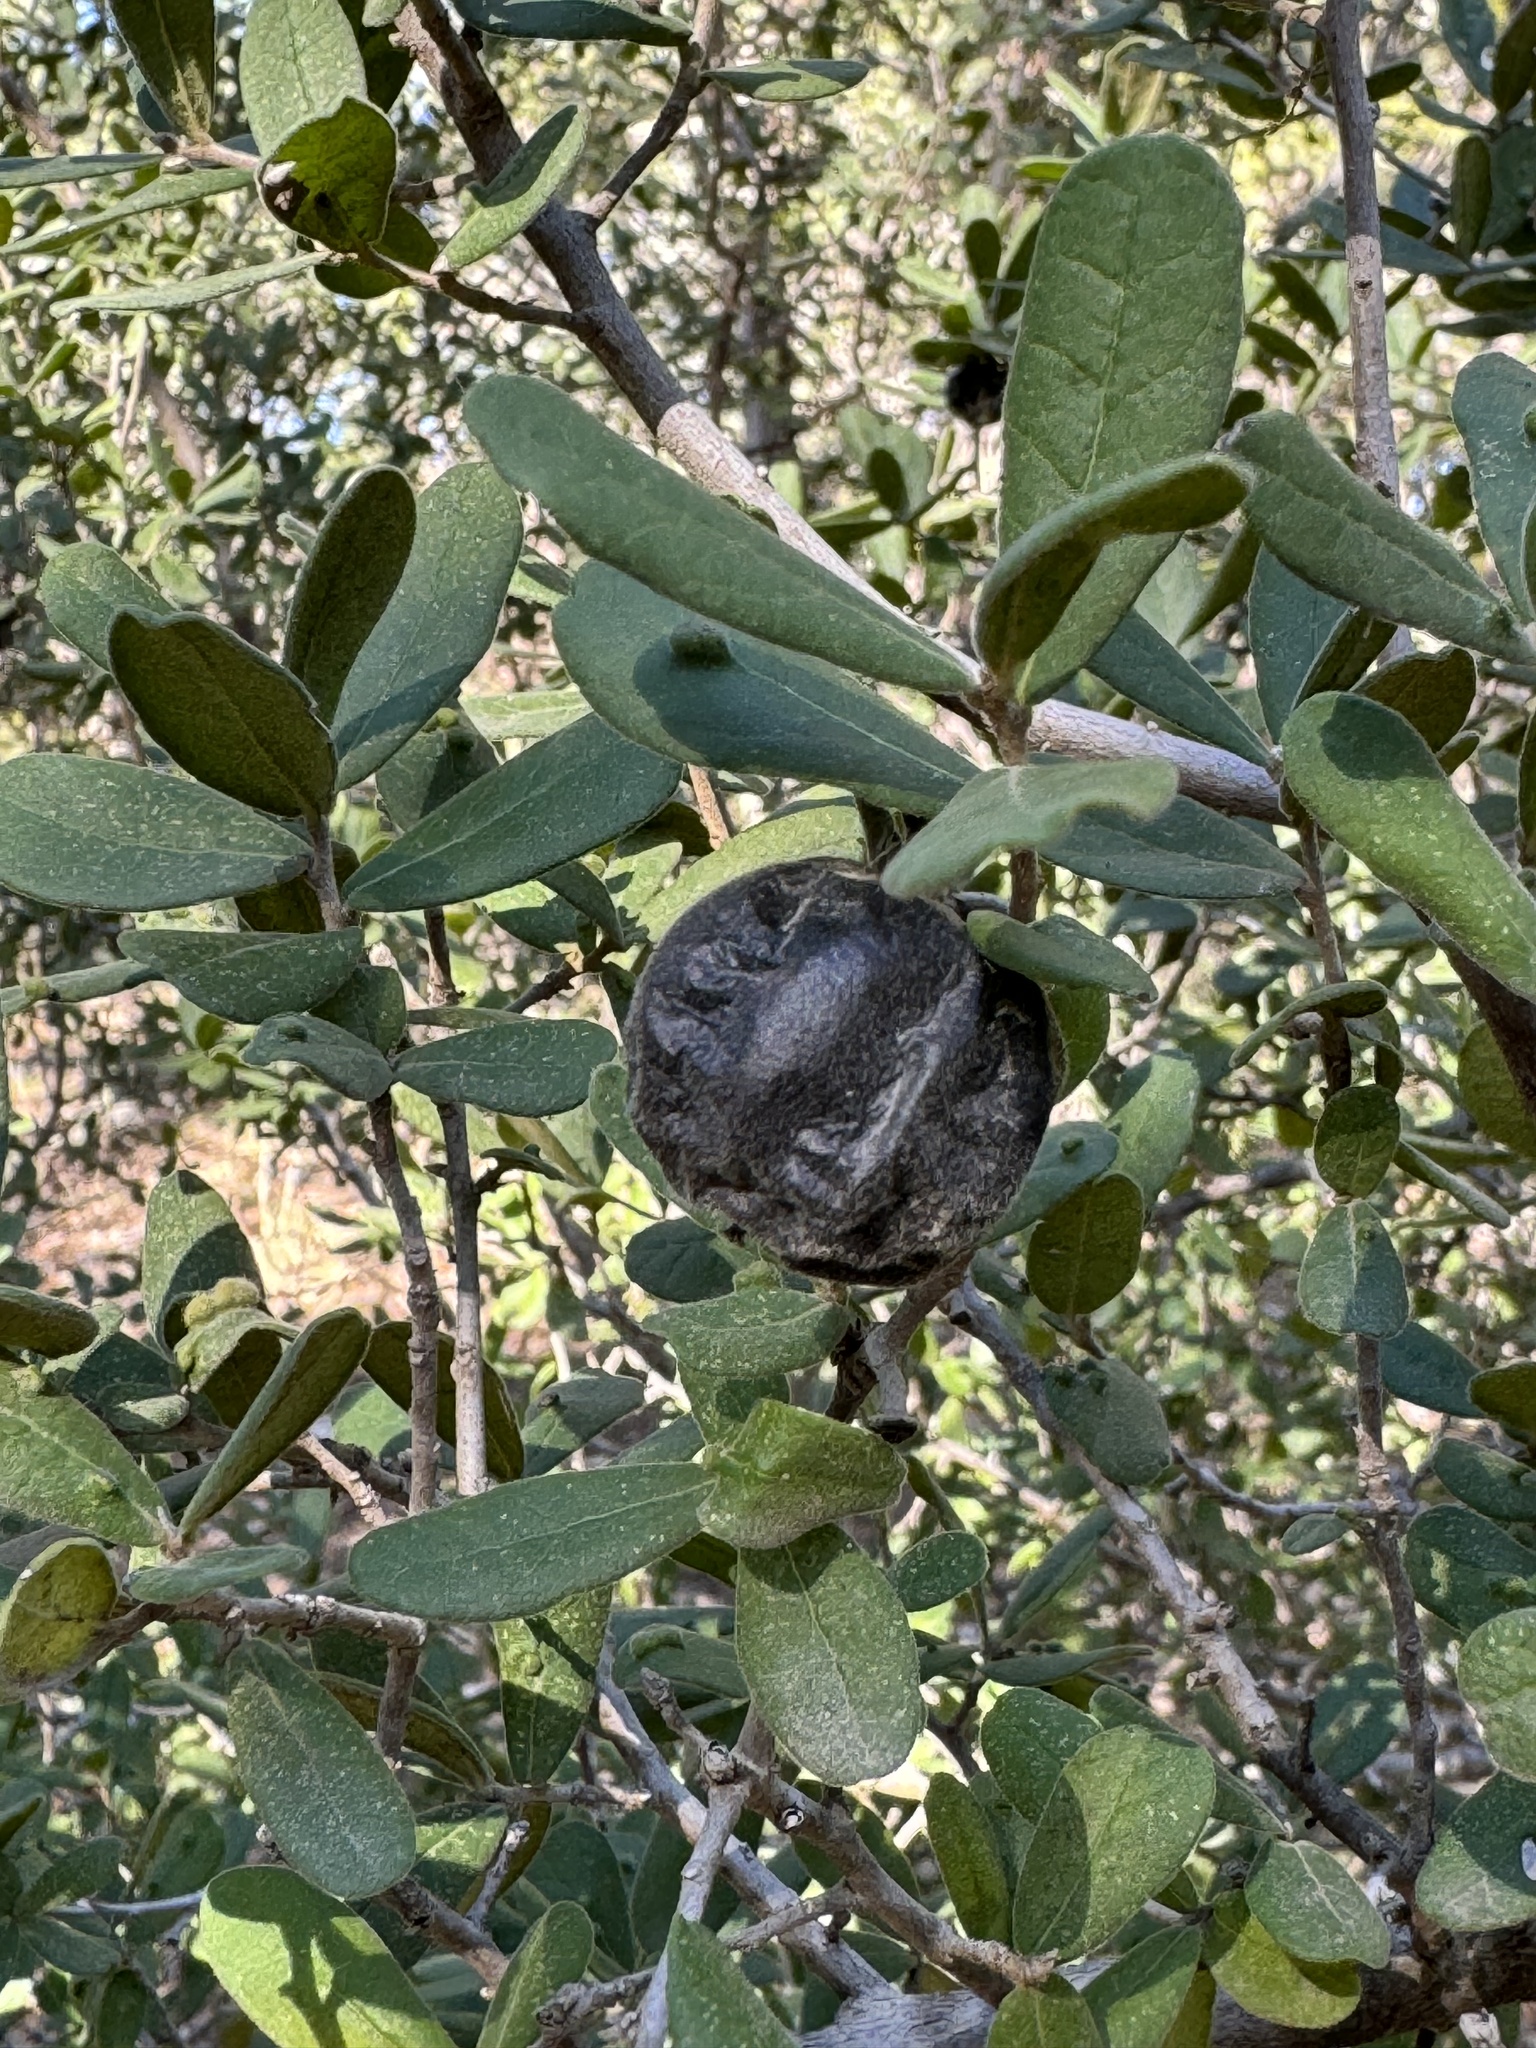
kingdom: Plantae
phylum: Tracheophyta
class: Magnoliopsida
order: Ericales
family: Ebenaceae
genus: Diospyros
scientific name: Diospyros texana
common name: Texas persimmon
